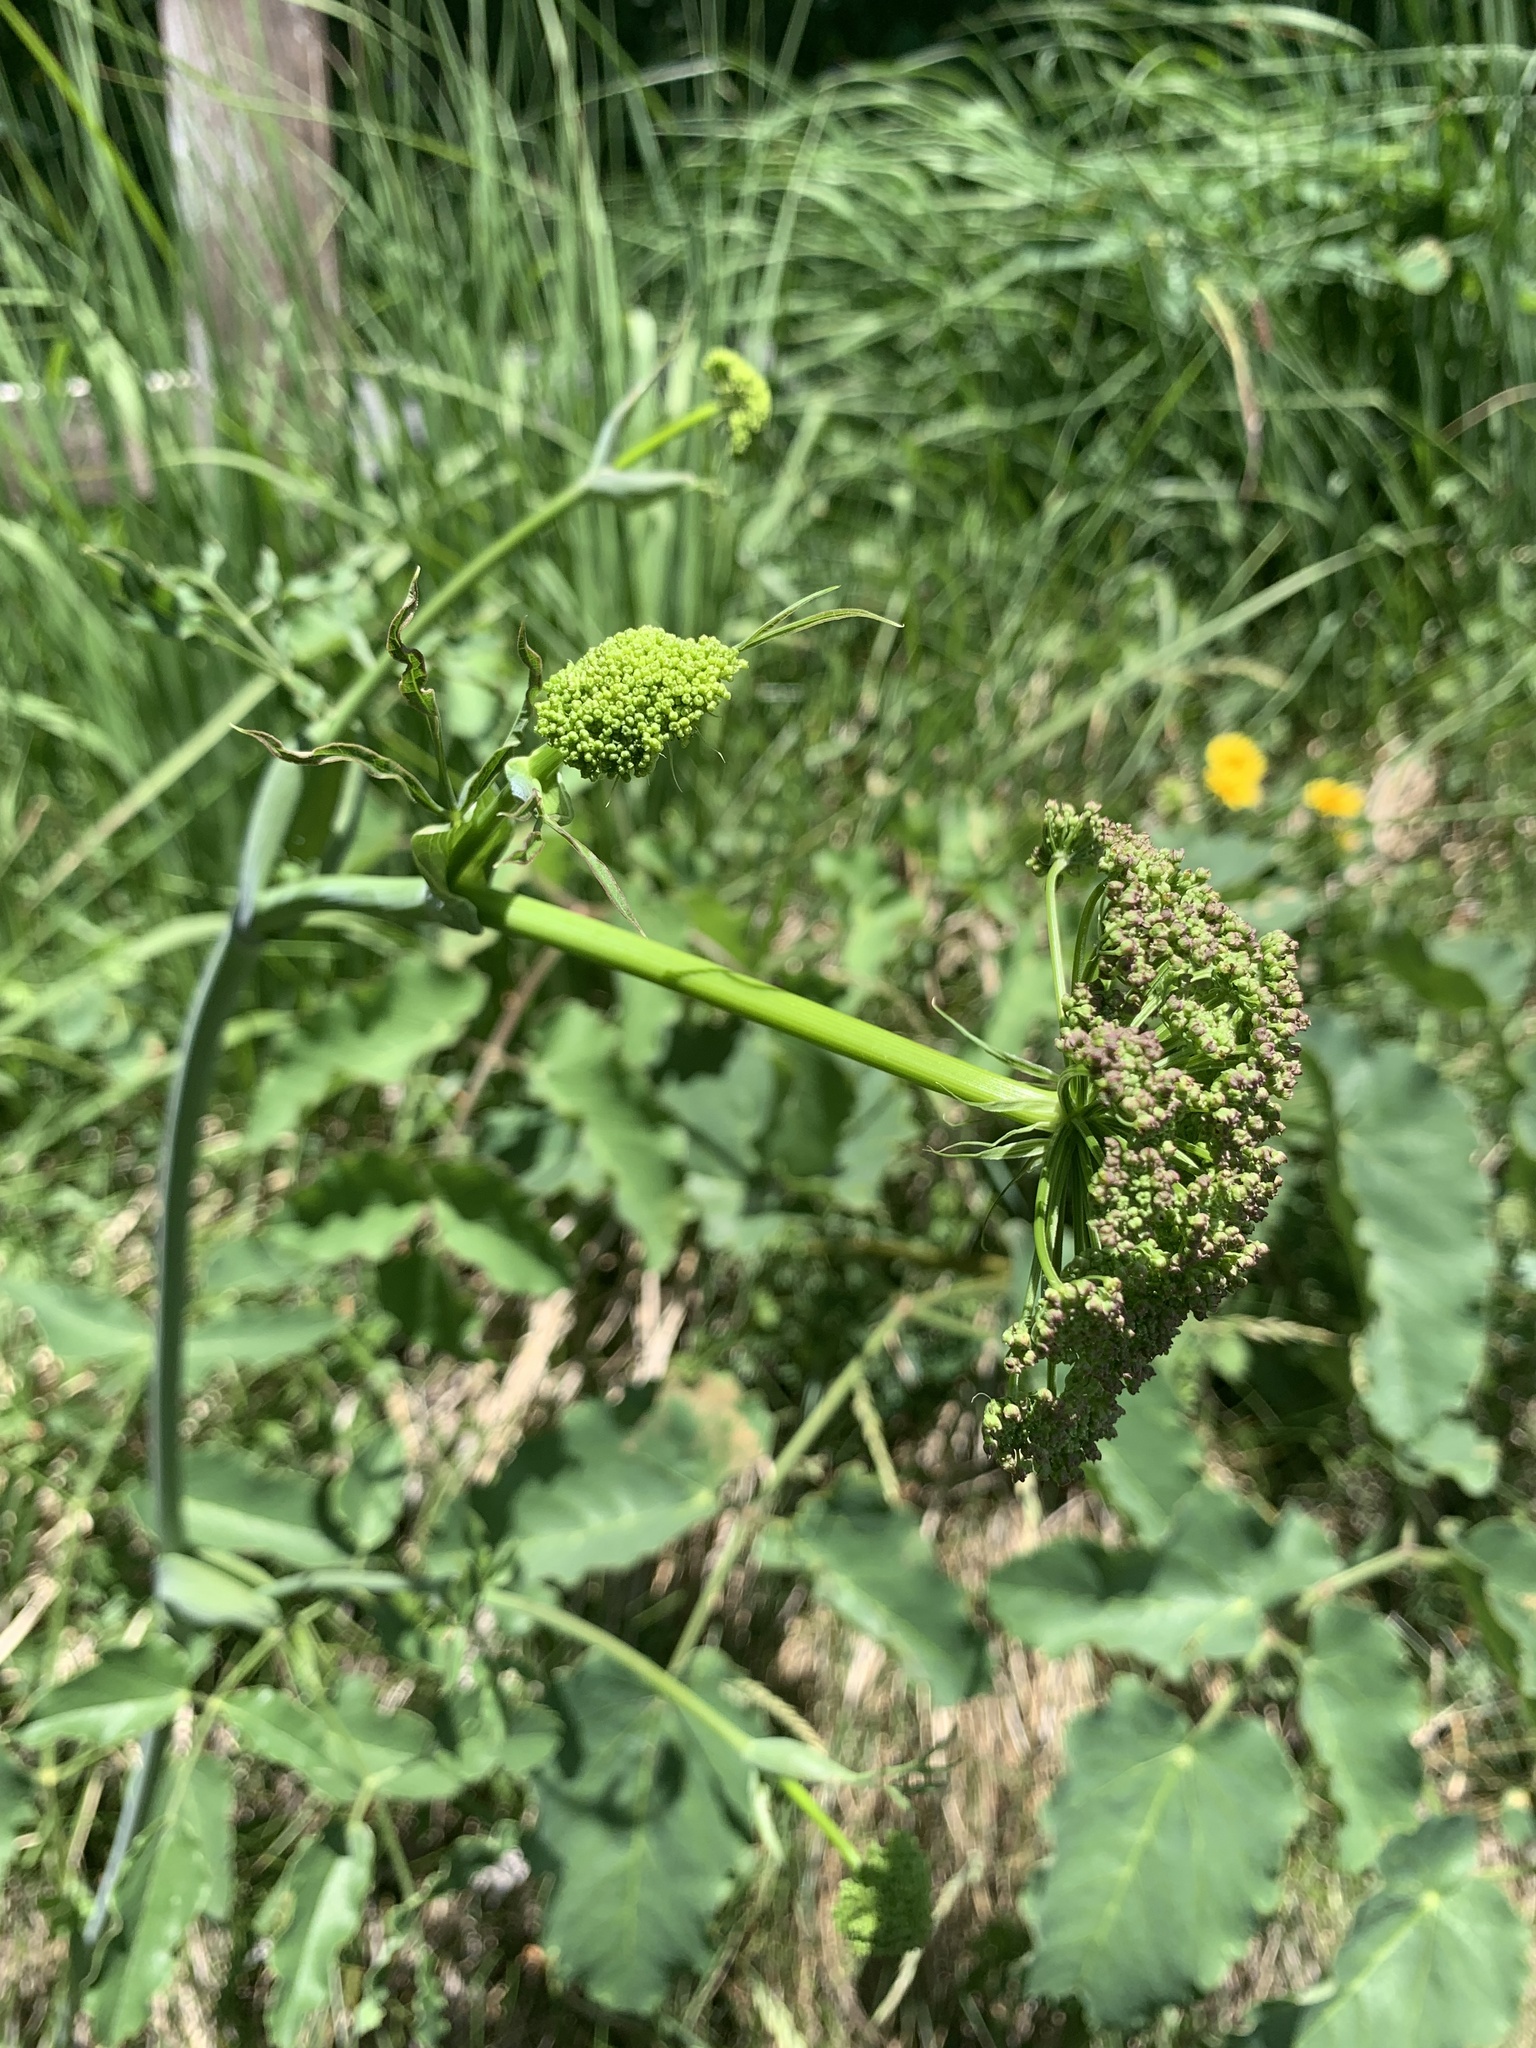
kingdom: Plantae
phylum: Tracheophyta
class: Magnoliopsida
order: Apiales
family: Apiaceae
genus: Laserpitium
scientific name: Laserpitium latifolium
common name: Broadleaf sermountain
